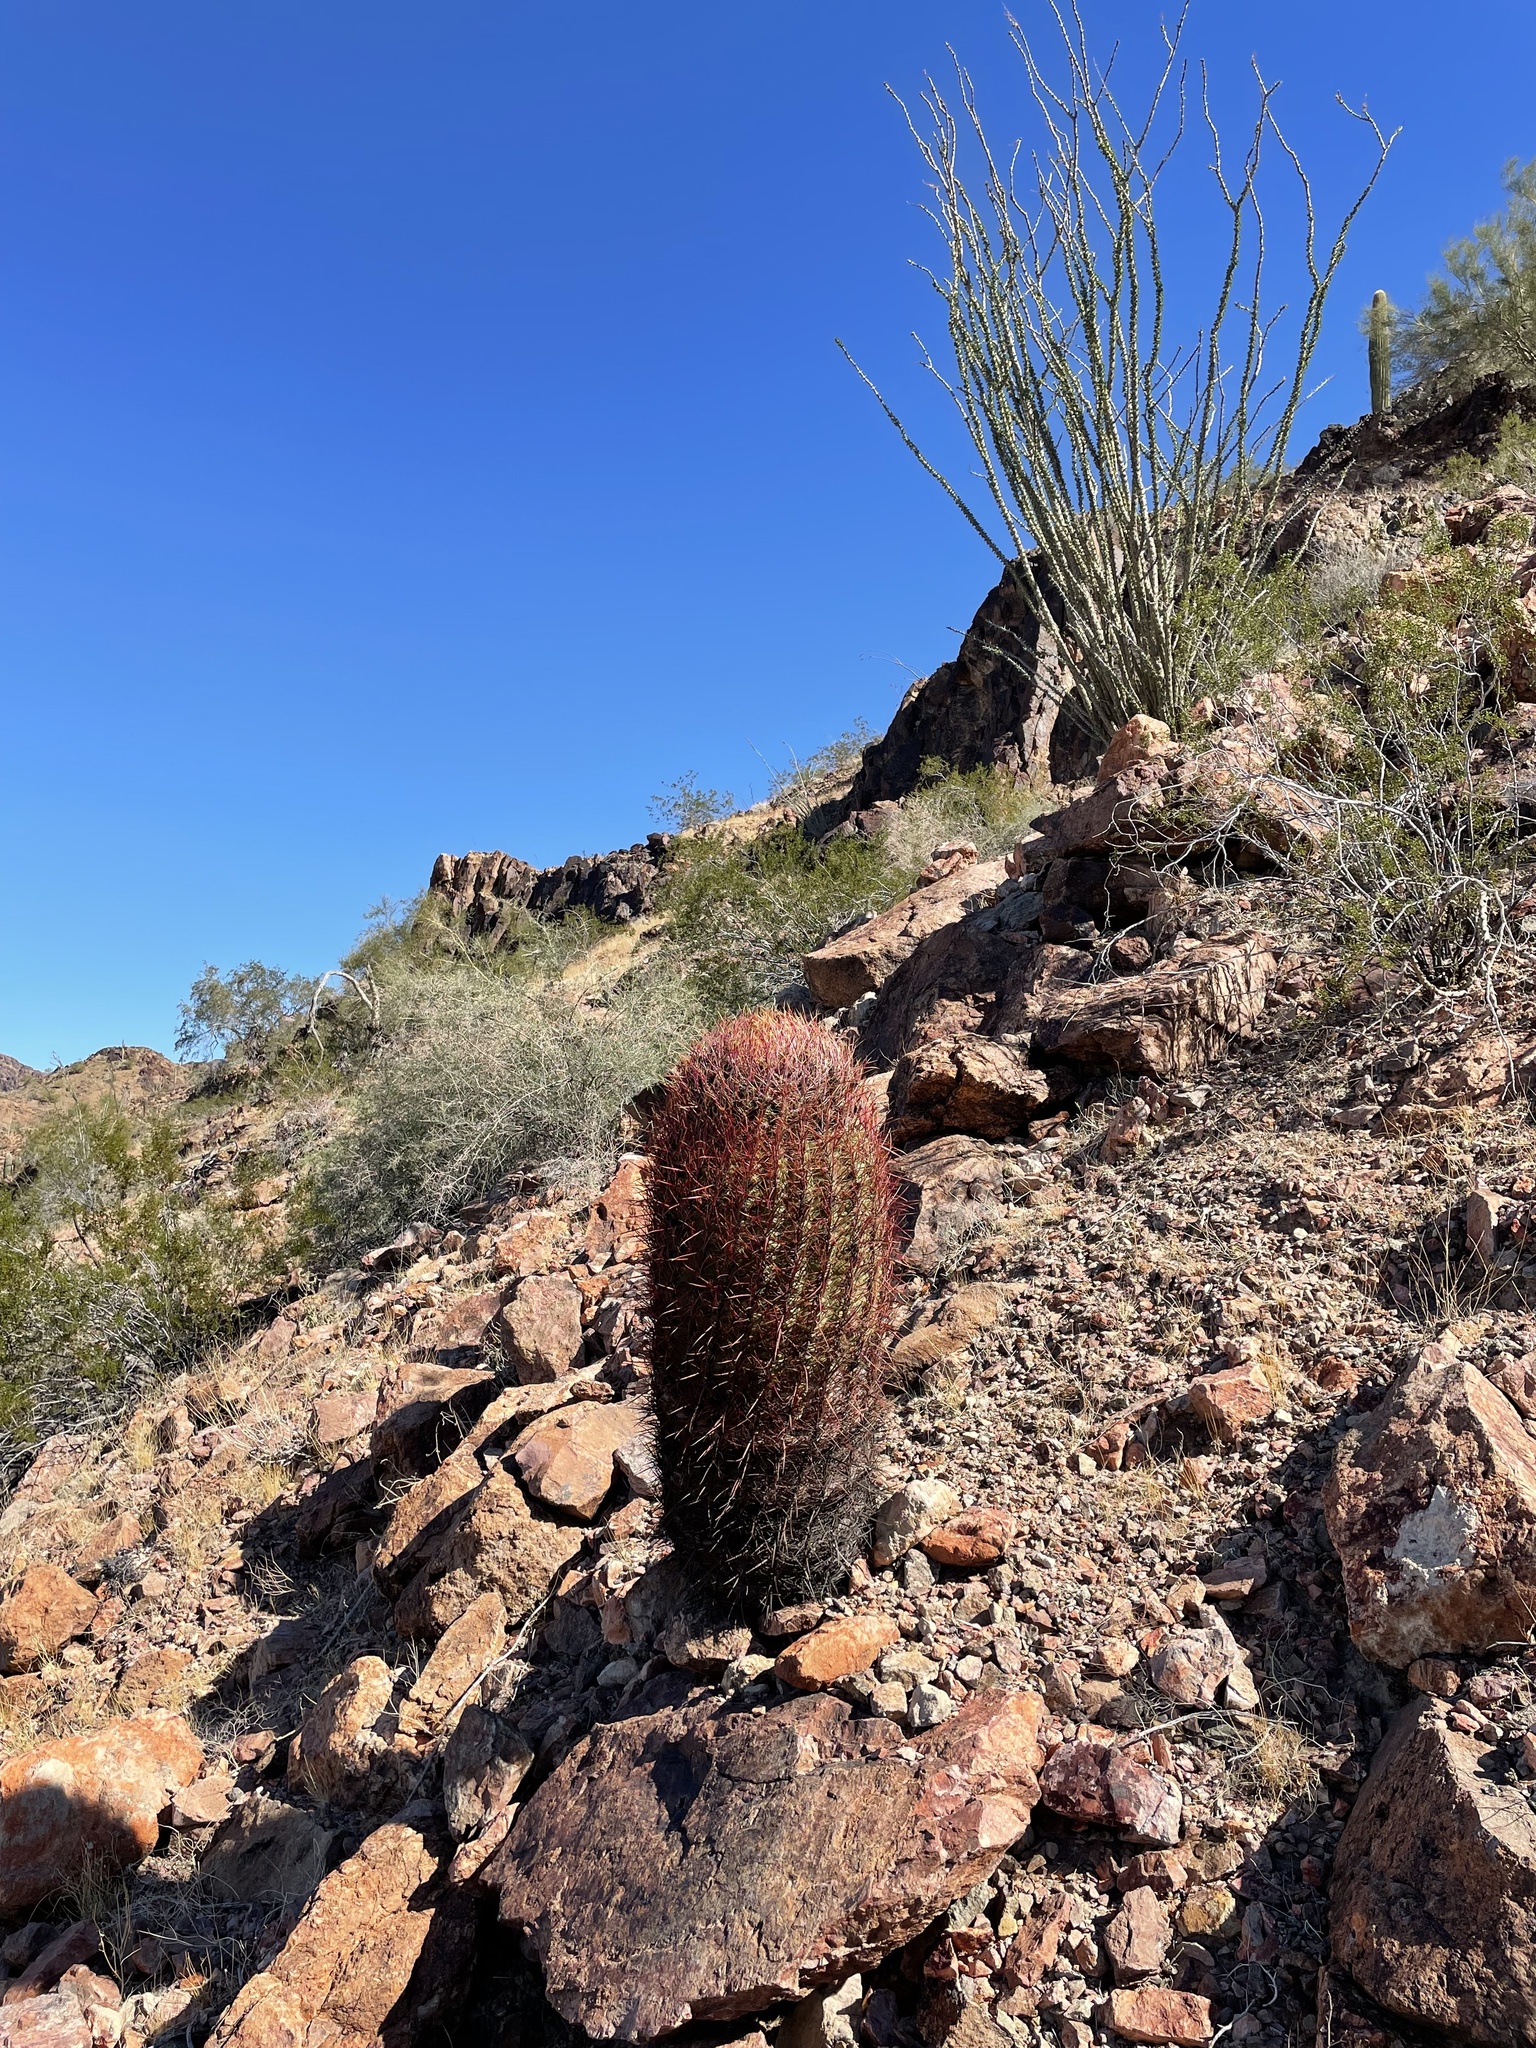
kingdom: Plantae
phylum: Tracheophyta
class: Magnoliopsida
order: Caryophyllales
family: Cactaceae
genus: Ferocactus
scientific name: Ferocactus cylindraceus
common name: California barrel cactus
